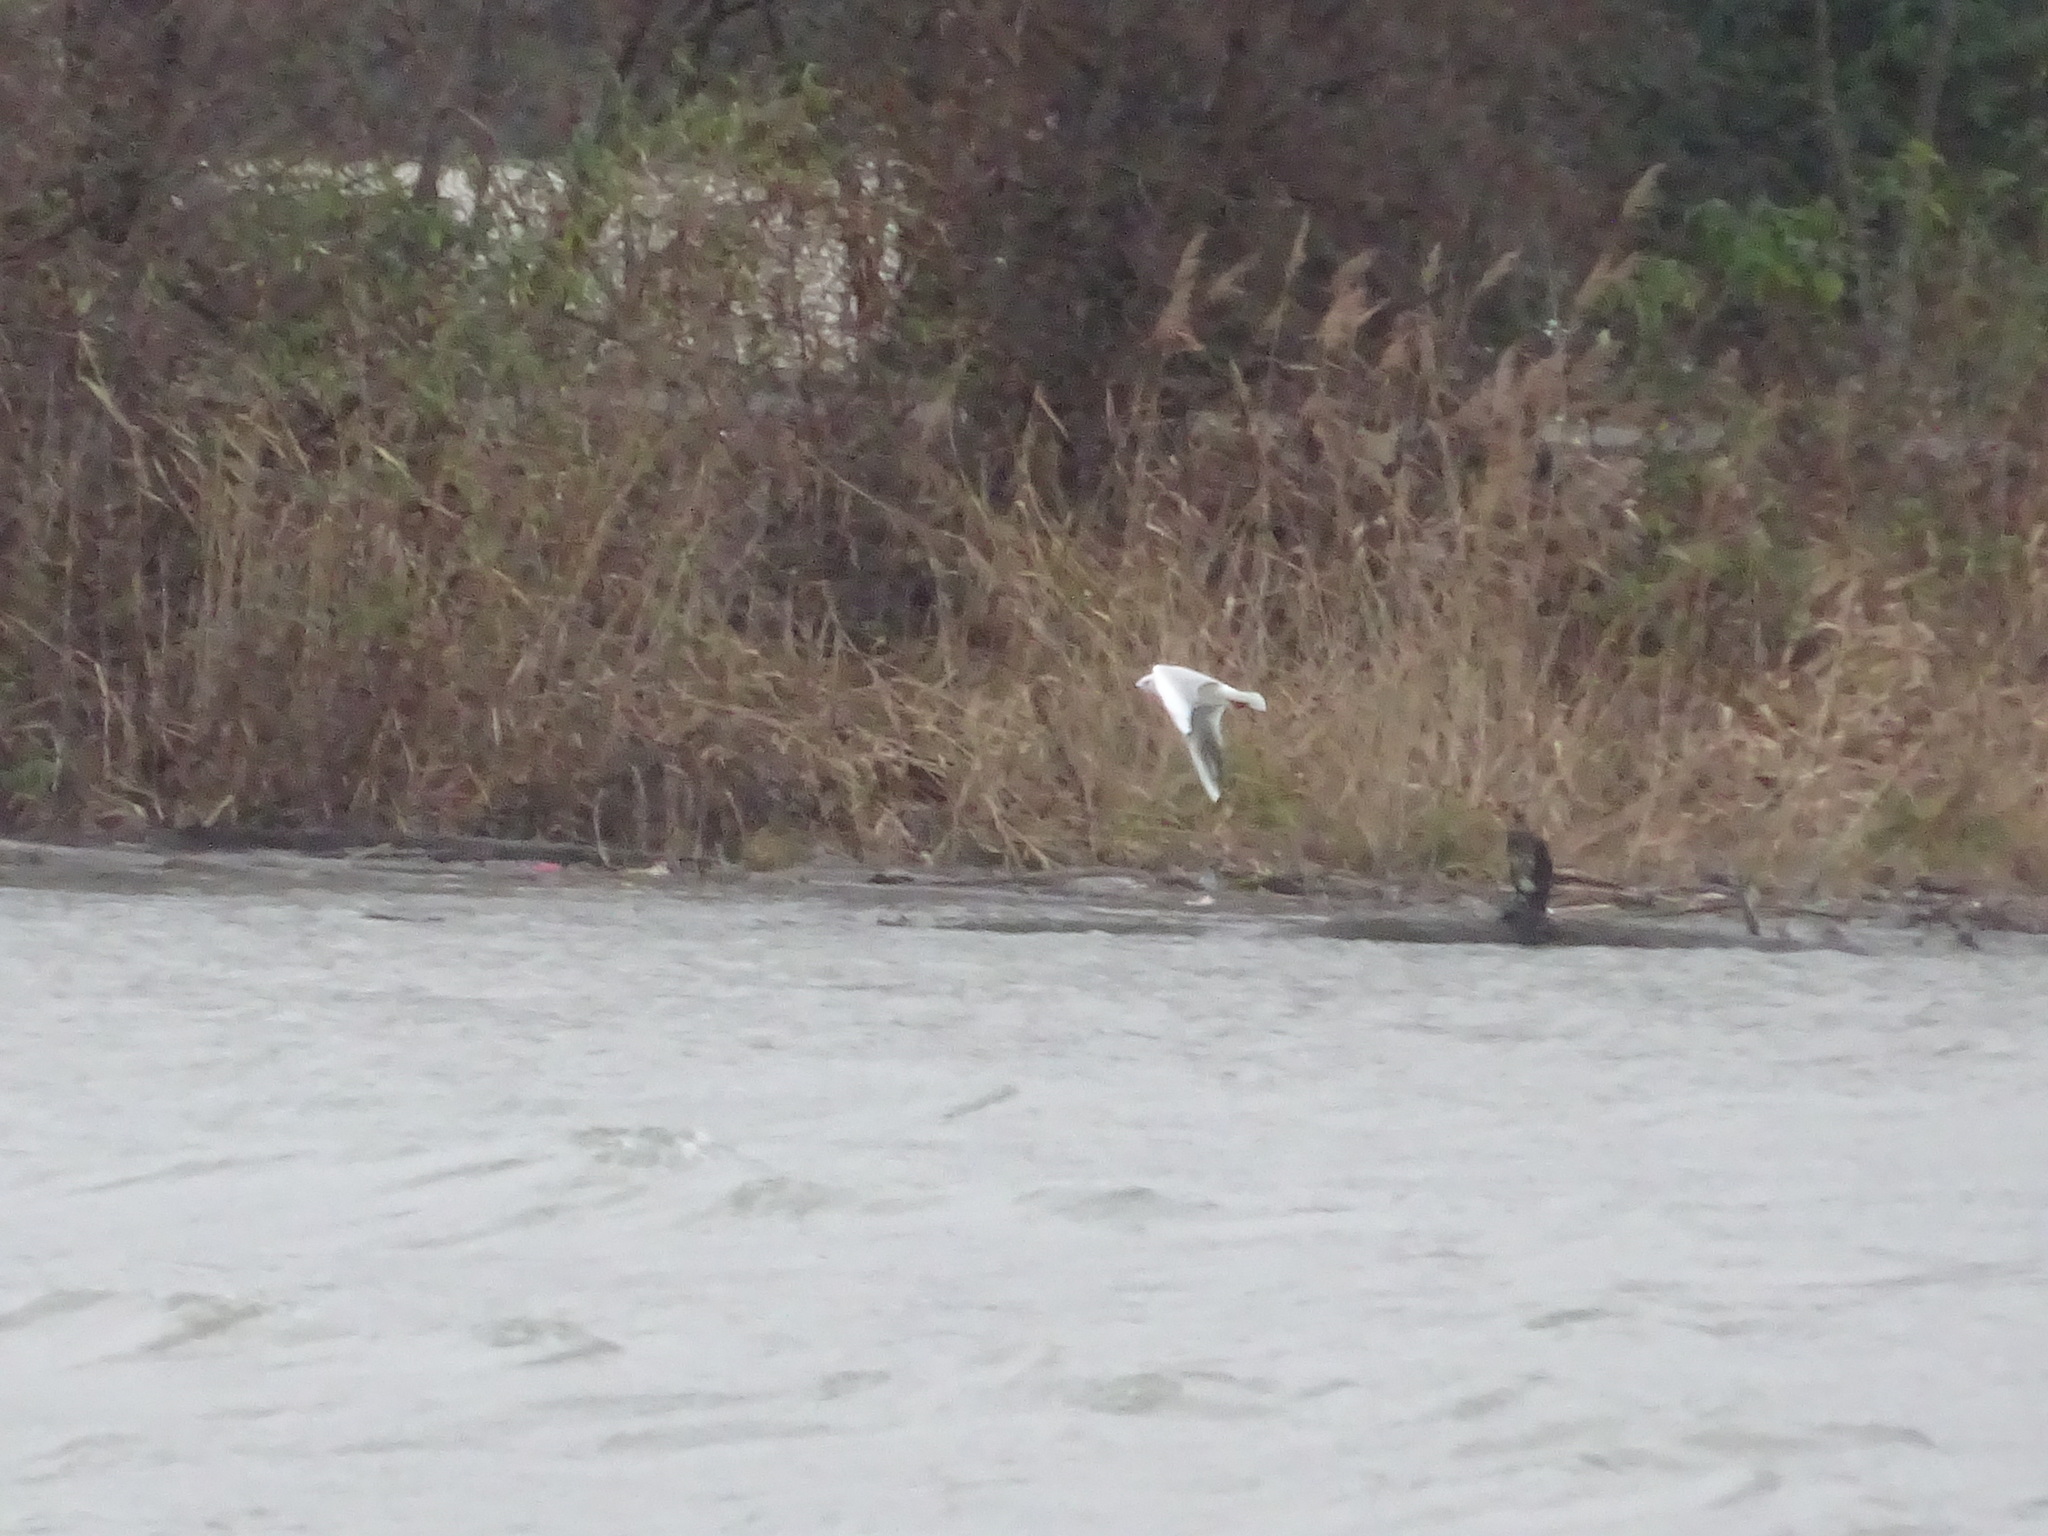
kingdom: Animalia
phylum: Chordata
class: Aves
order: Charadriiformes
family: Laridae
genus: Chroicocephalus
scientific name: Chroicocephalus ridibundus
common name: Black-headed gull
